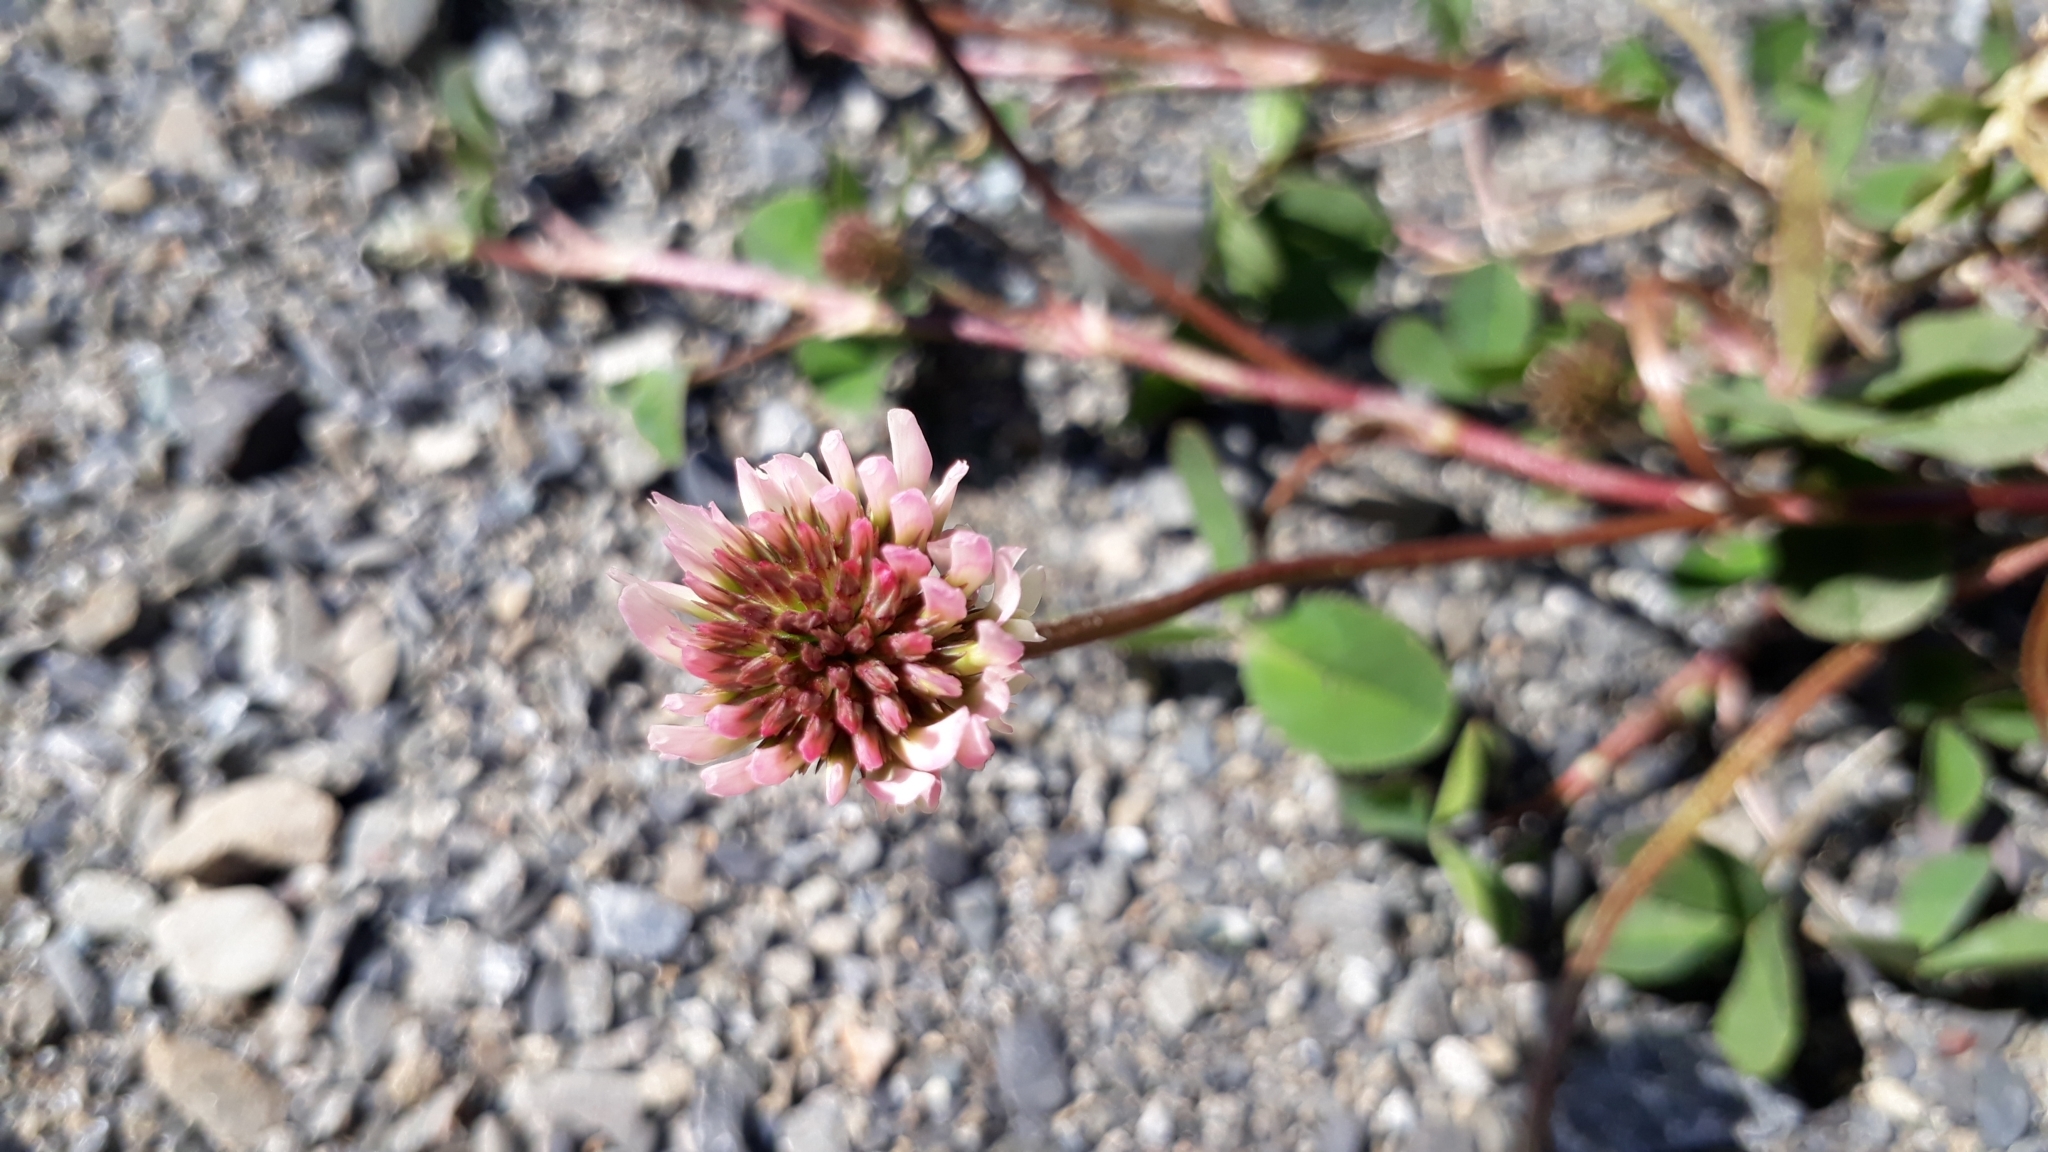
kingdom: Plantae
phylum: Tracheophyta
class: Magnoliopsida
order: Fabales
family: Fabaceae
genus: Trifolium
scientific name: Trifolium repens
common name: White clover
